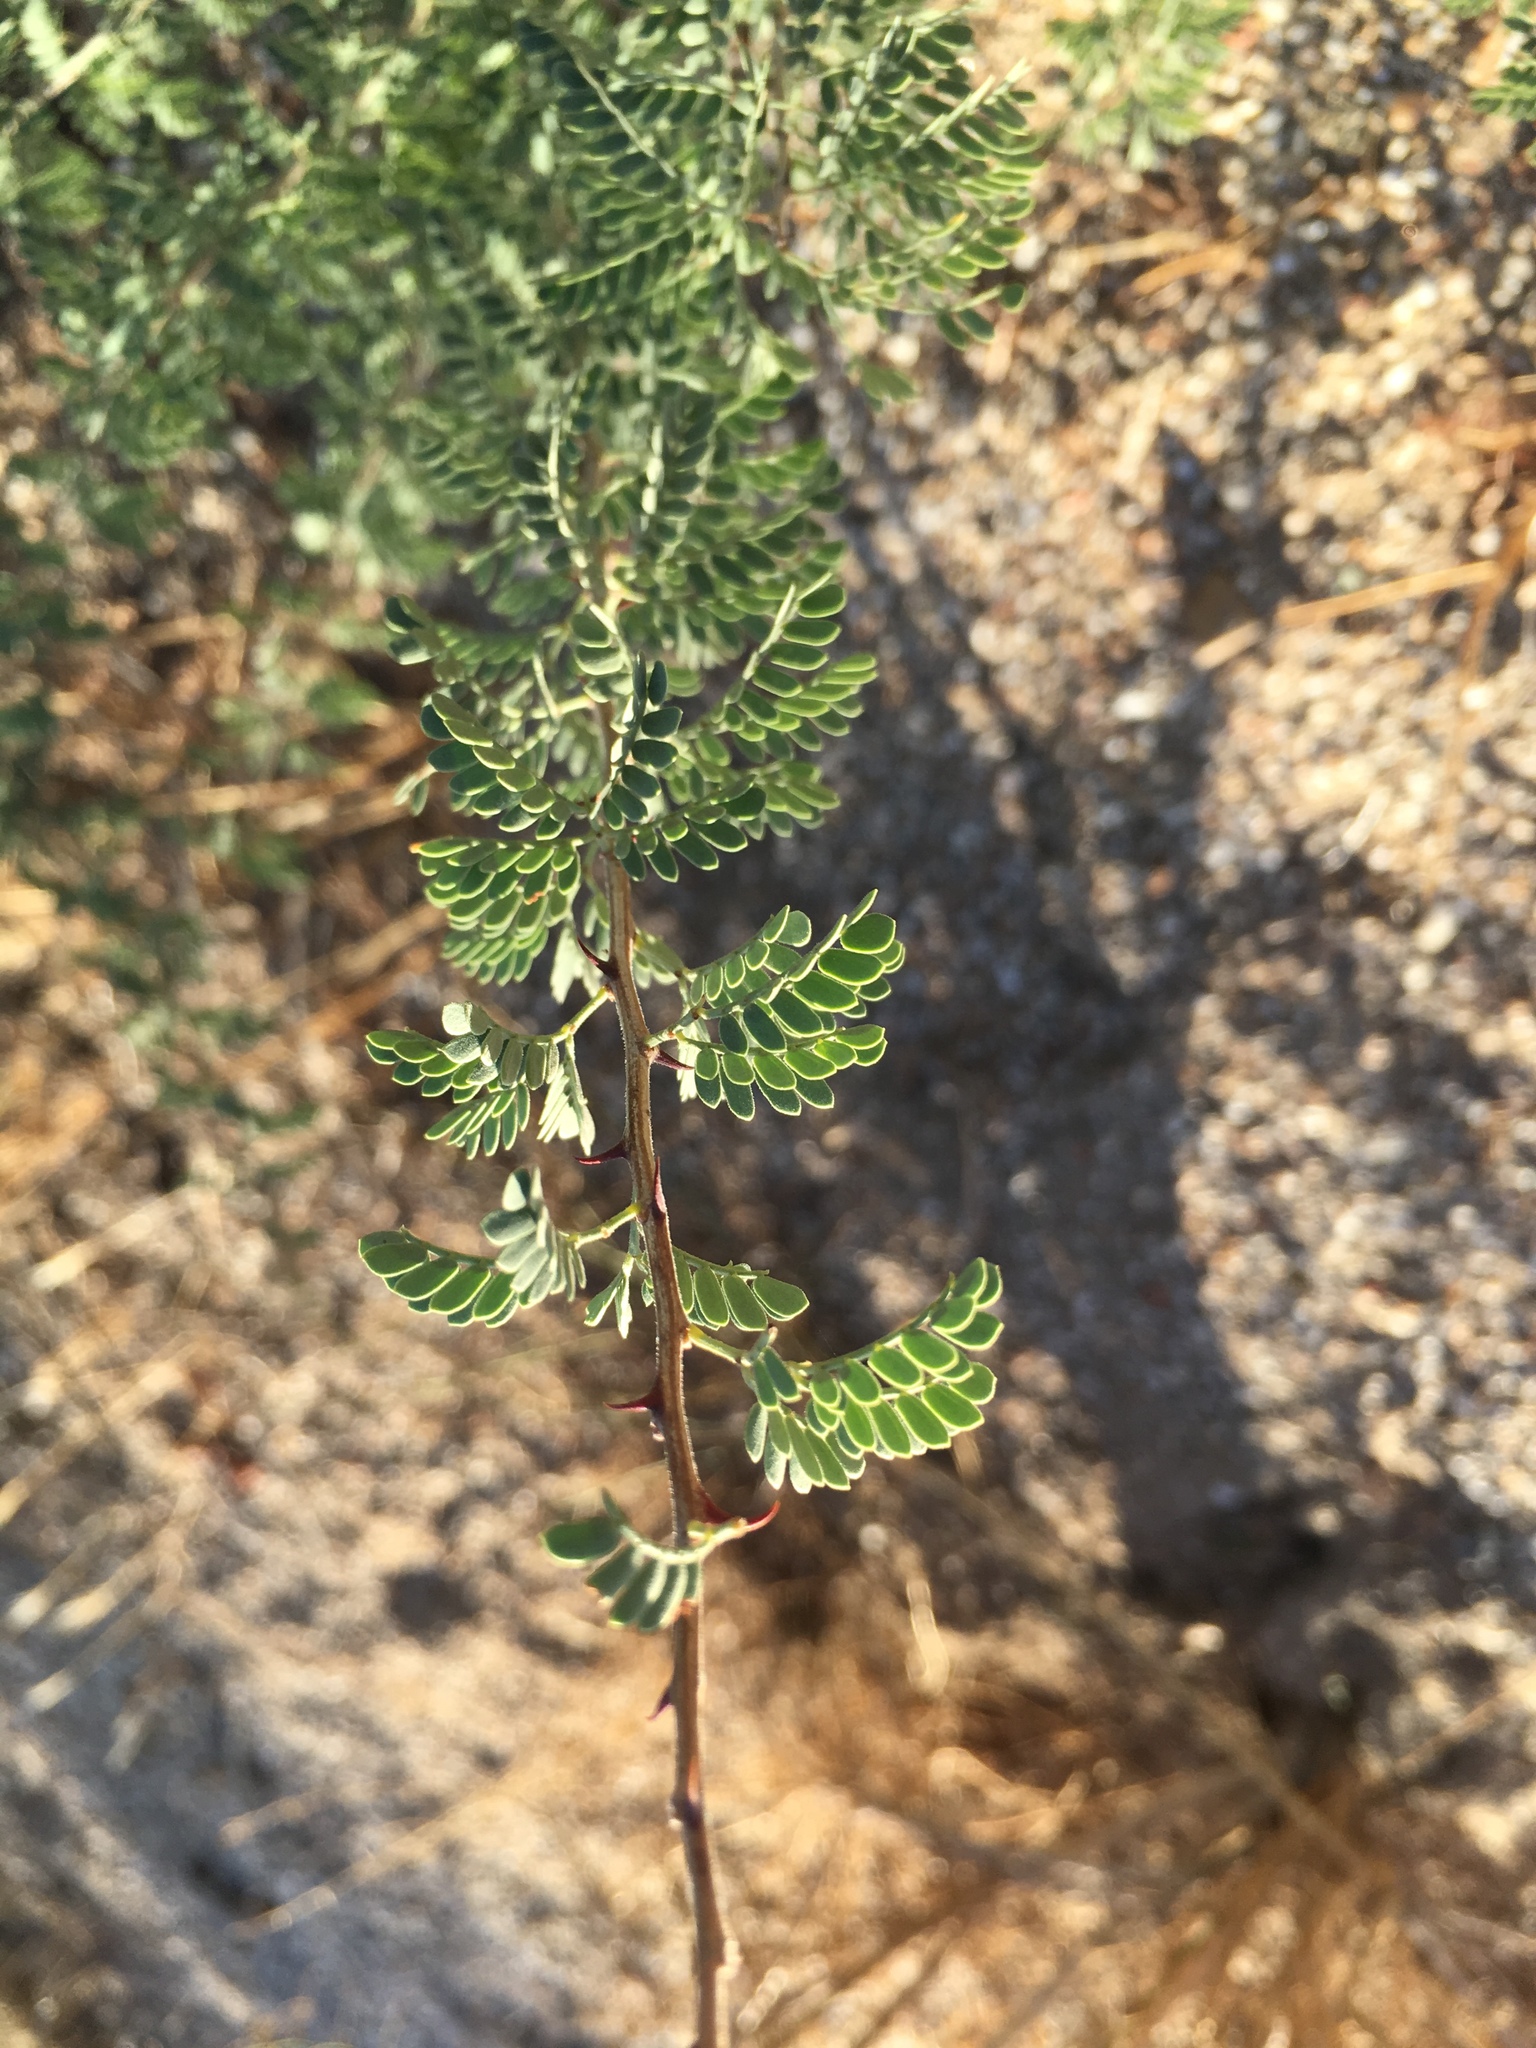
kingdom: Plantae
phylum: Tracheophyta
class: Magnoliopsida
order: Fabales
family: Fabaceae
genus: Senegalia
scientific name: Senegalia greggii
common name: Texas-mimosa
